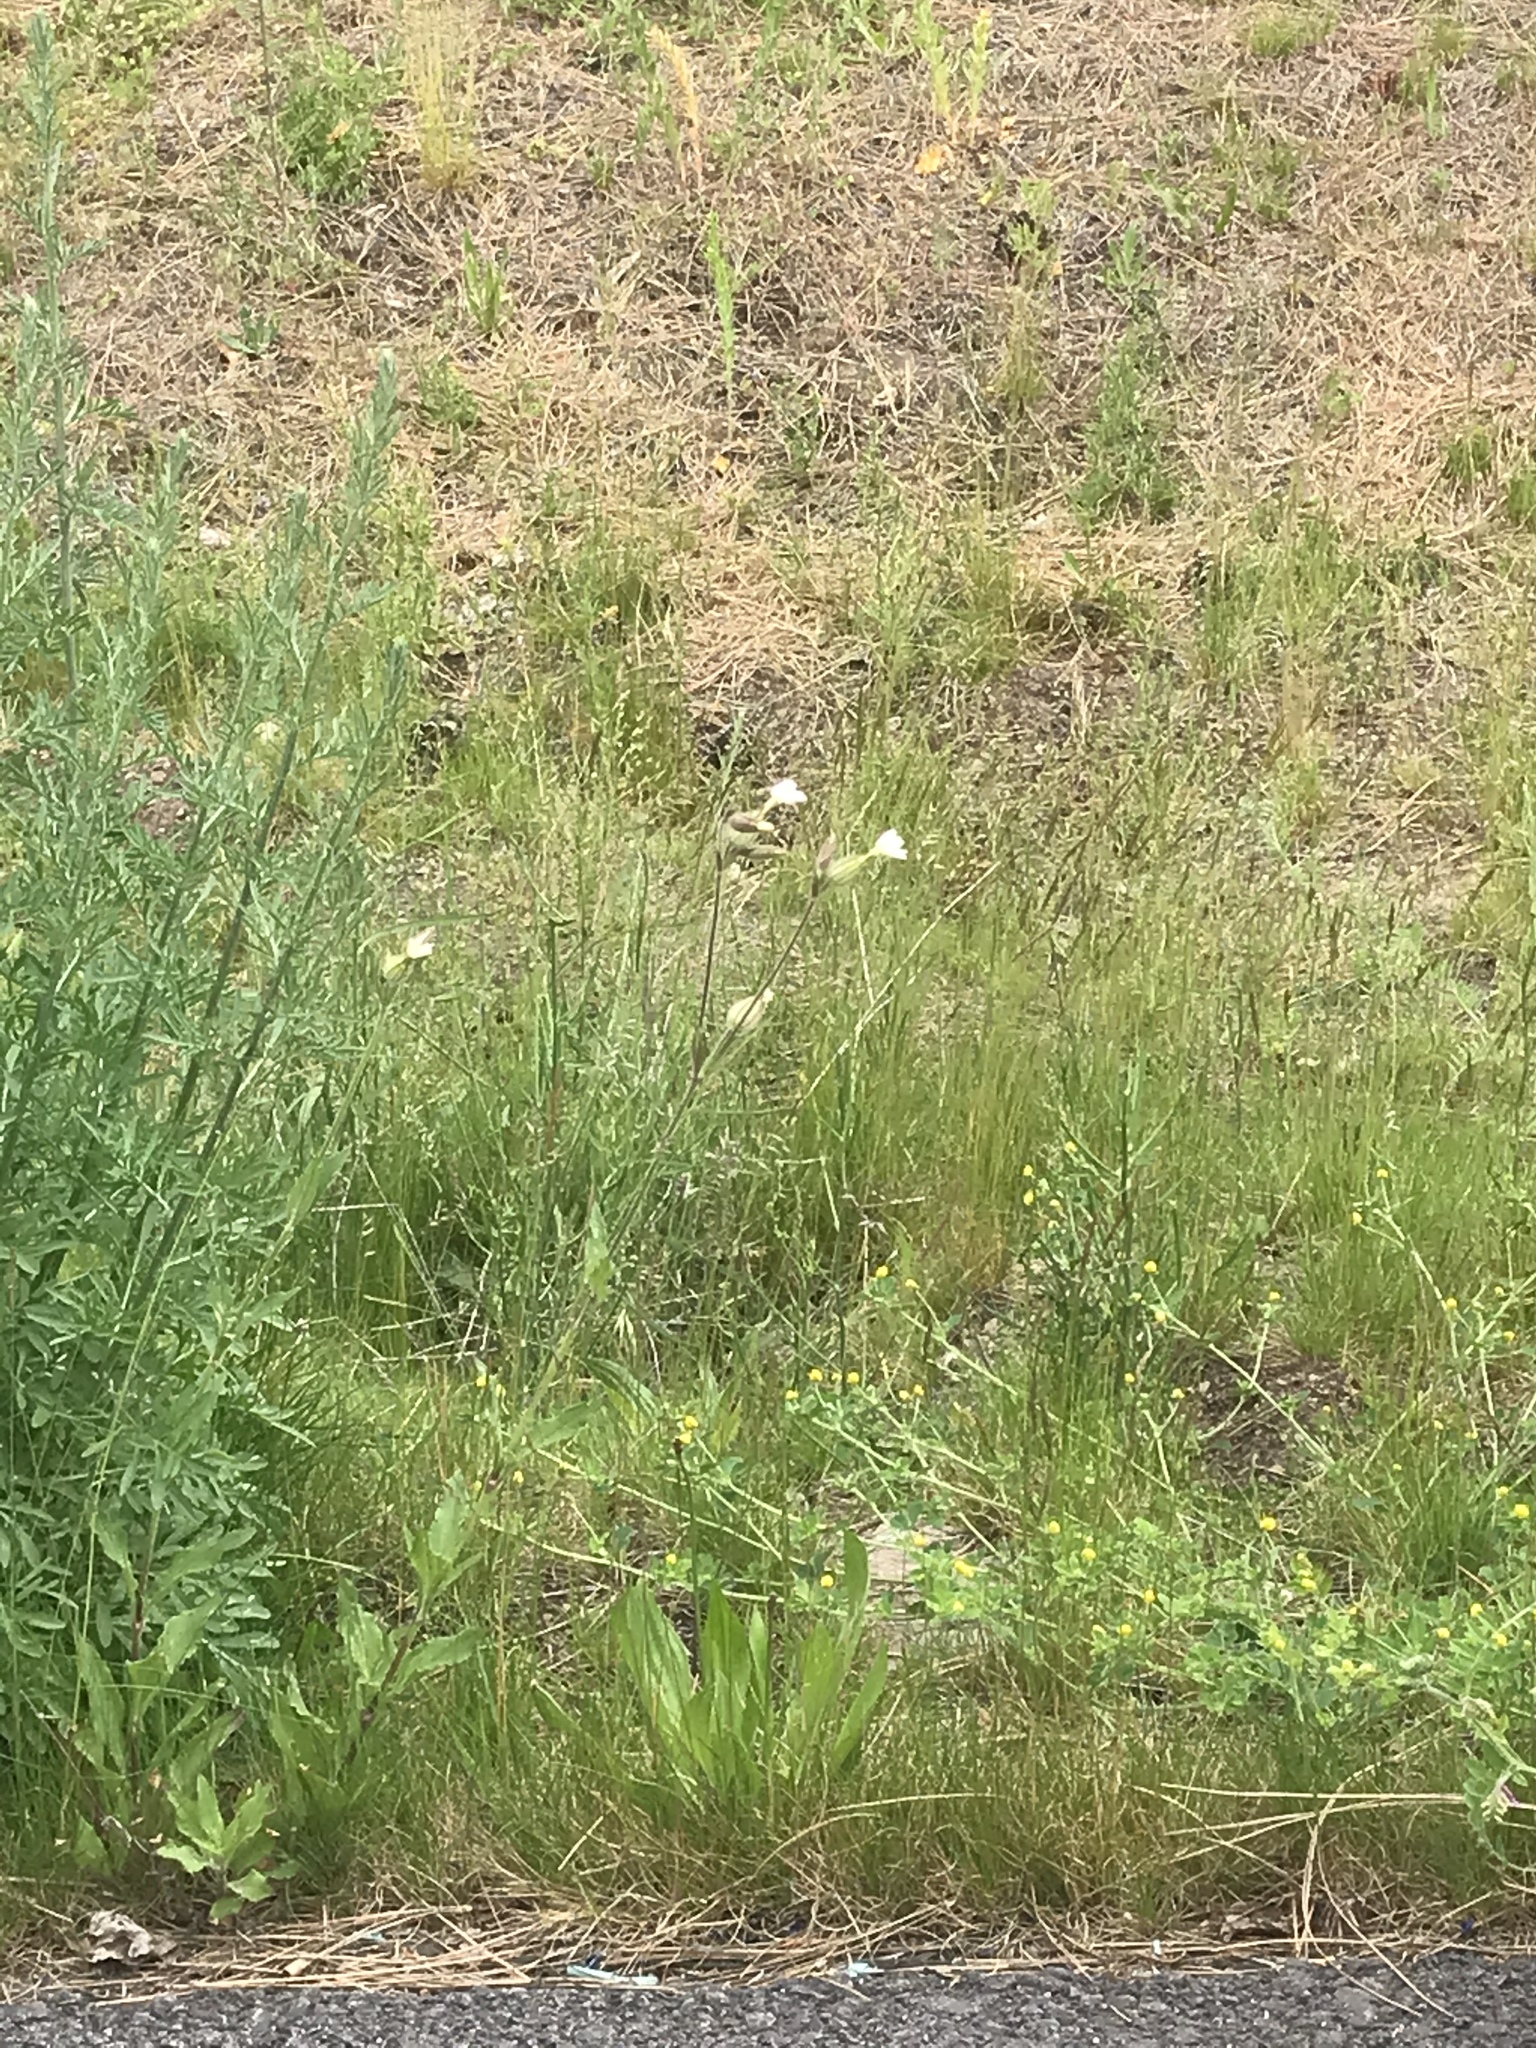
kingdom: Plantae
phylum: Tracheophyta
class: Magnoliopsida
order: Caryophyllales
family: Caryophyllaceae
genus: Silene
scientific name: Silene latifolia
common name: White campion
